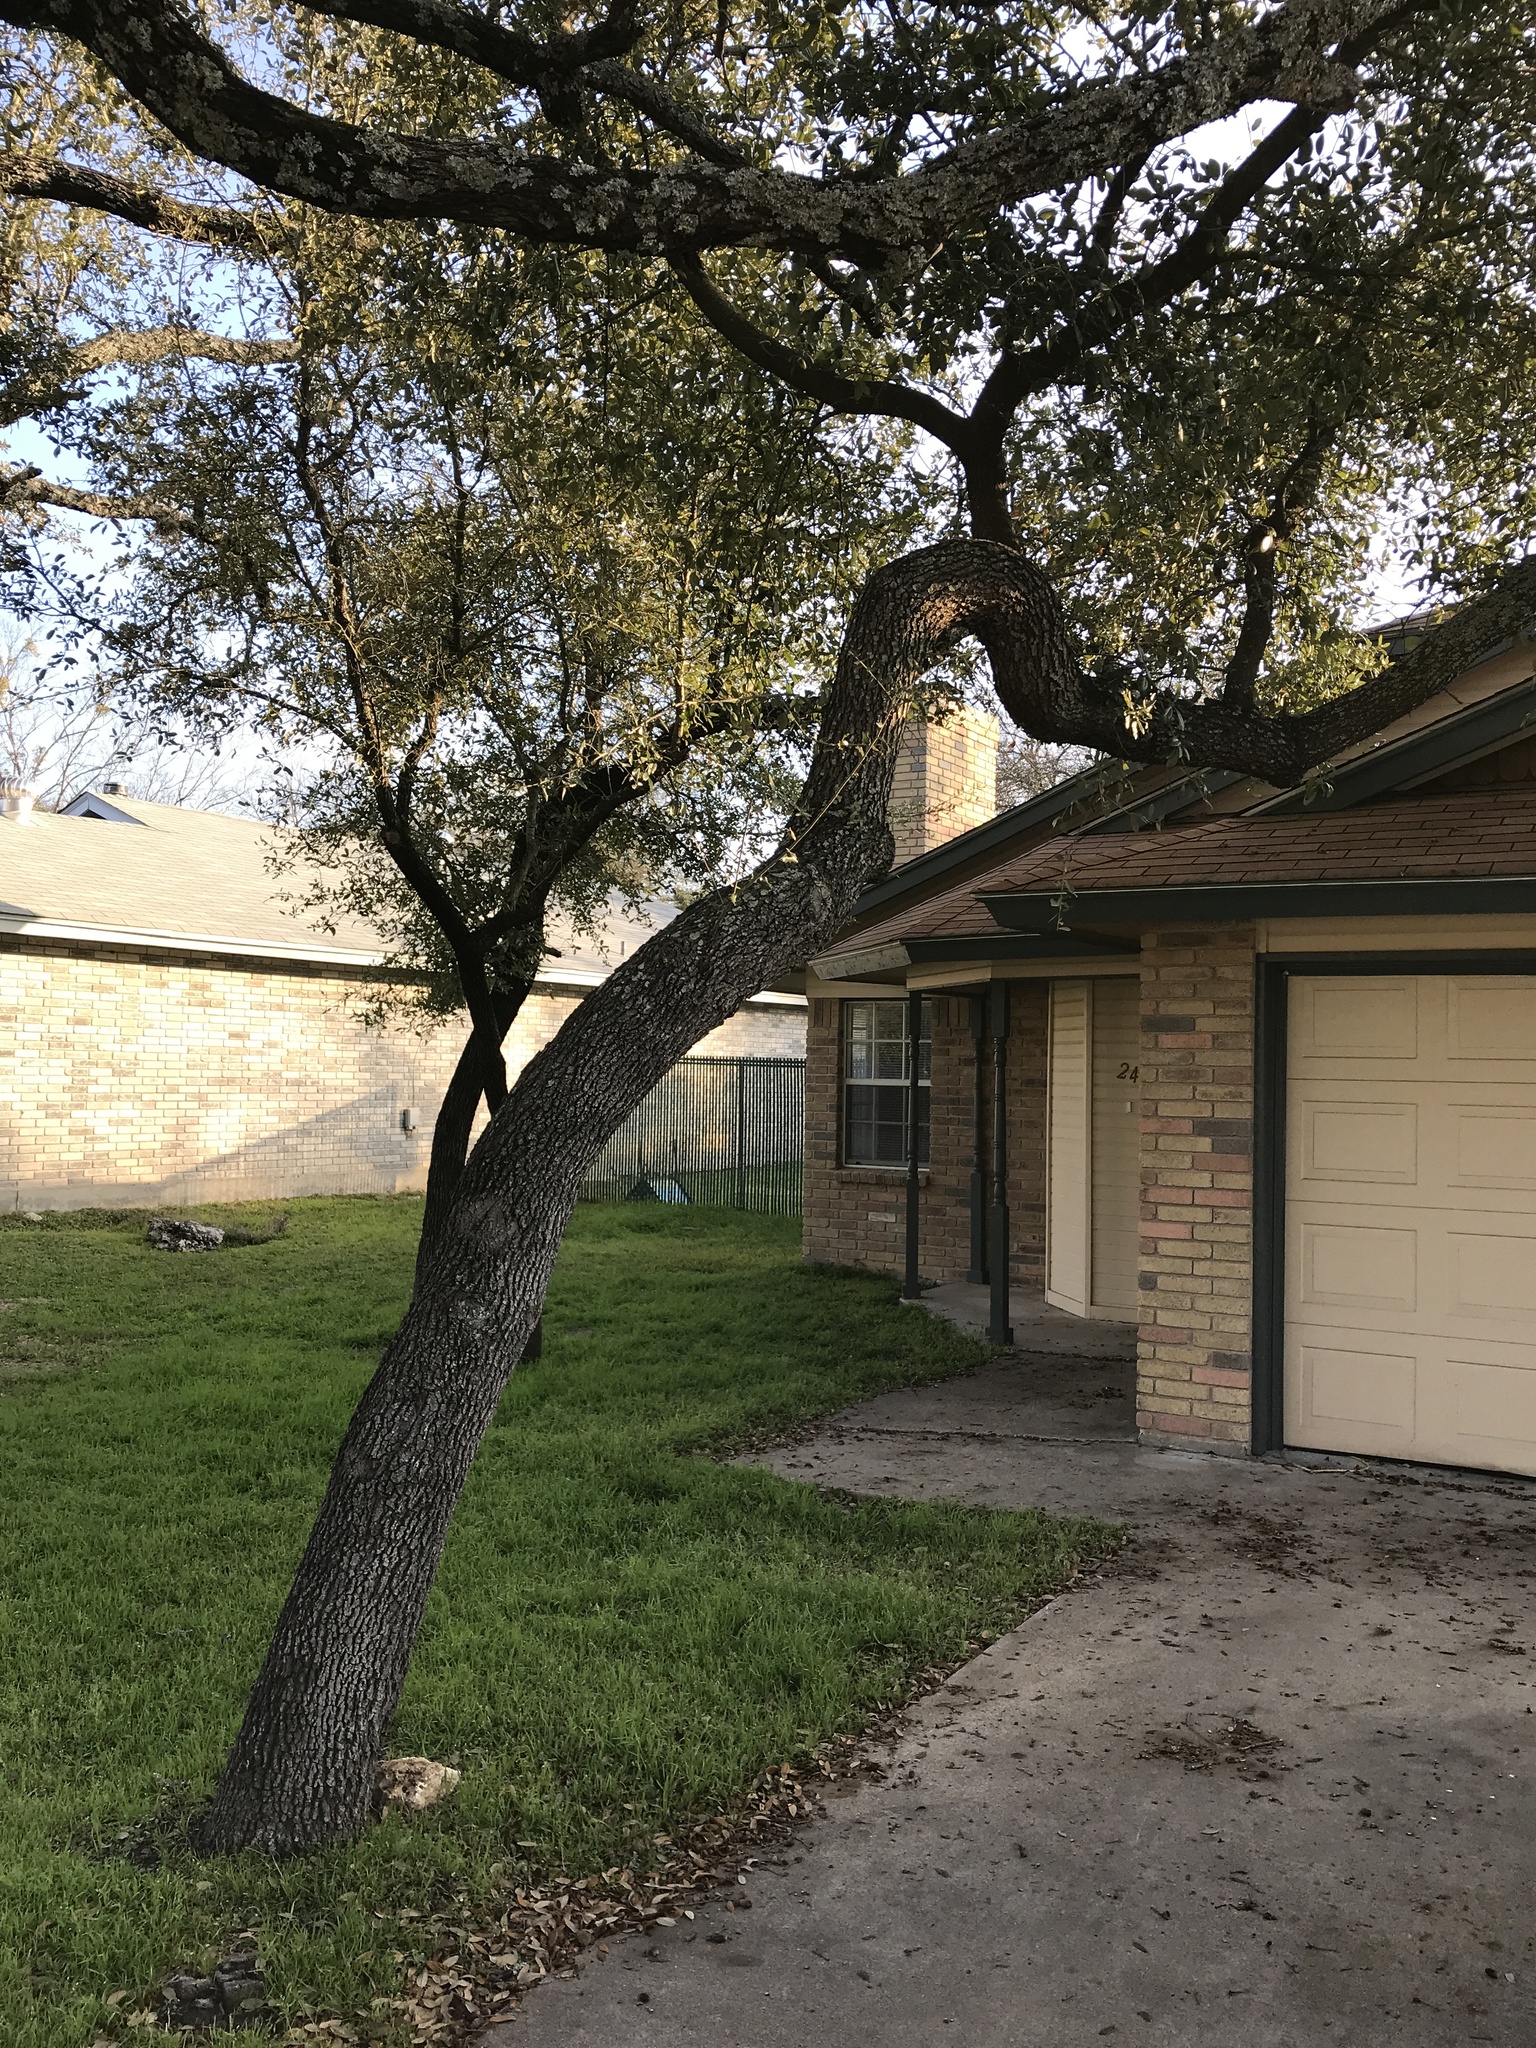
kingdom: Plantae
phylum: Tracheophyta
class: Magnoliopsida
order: Fagales
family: Fagaceae
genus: Quercus
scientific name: Quercus fusiformis
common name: Texas live oak
